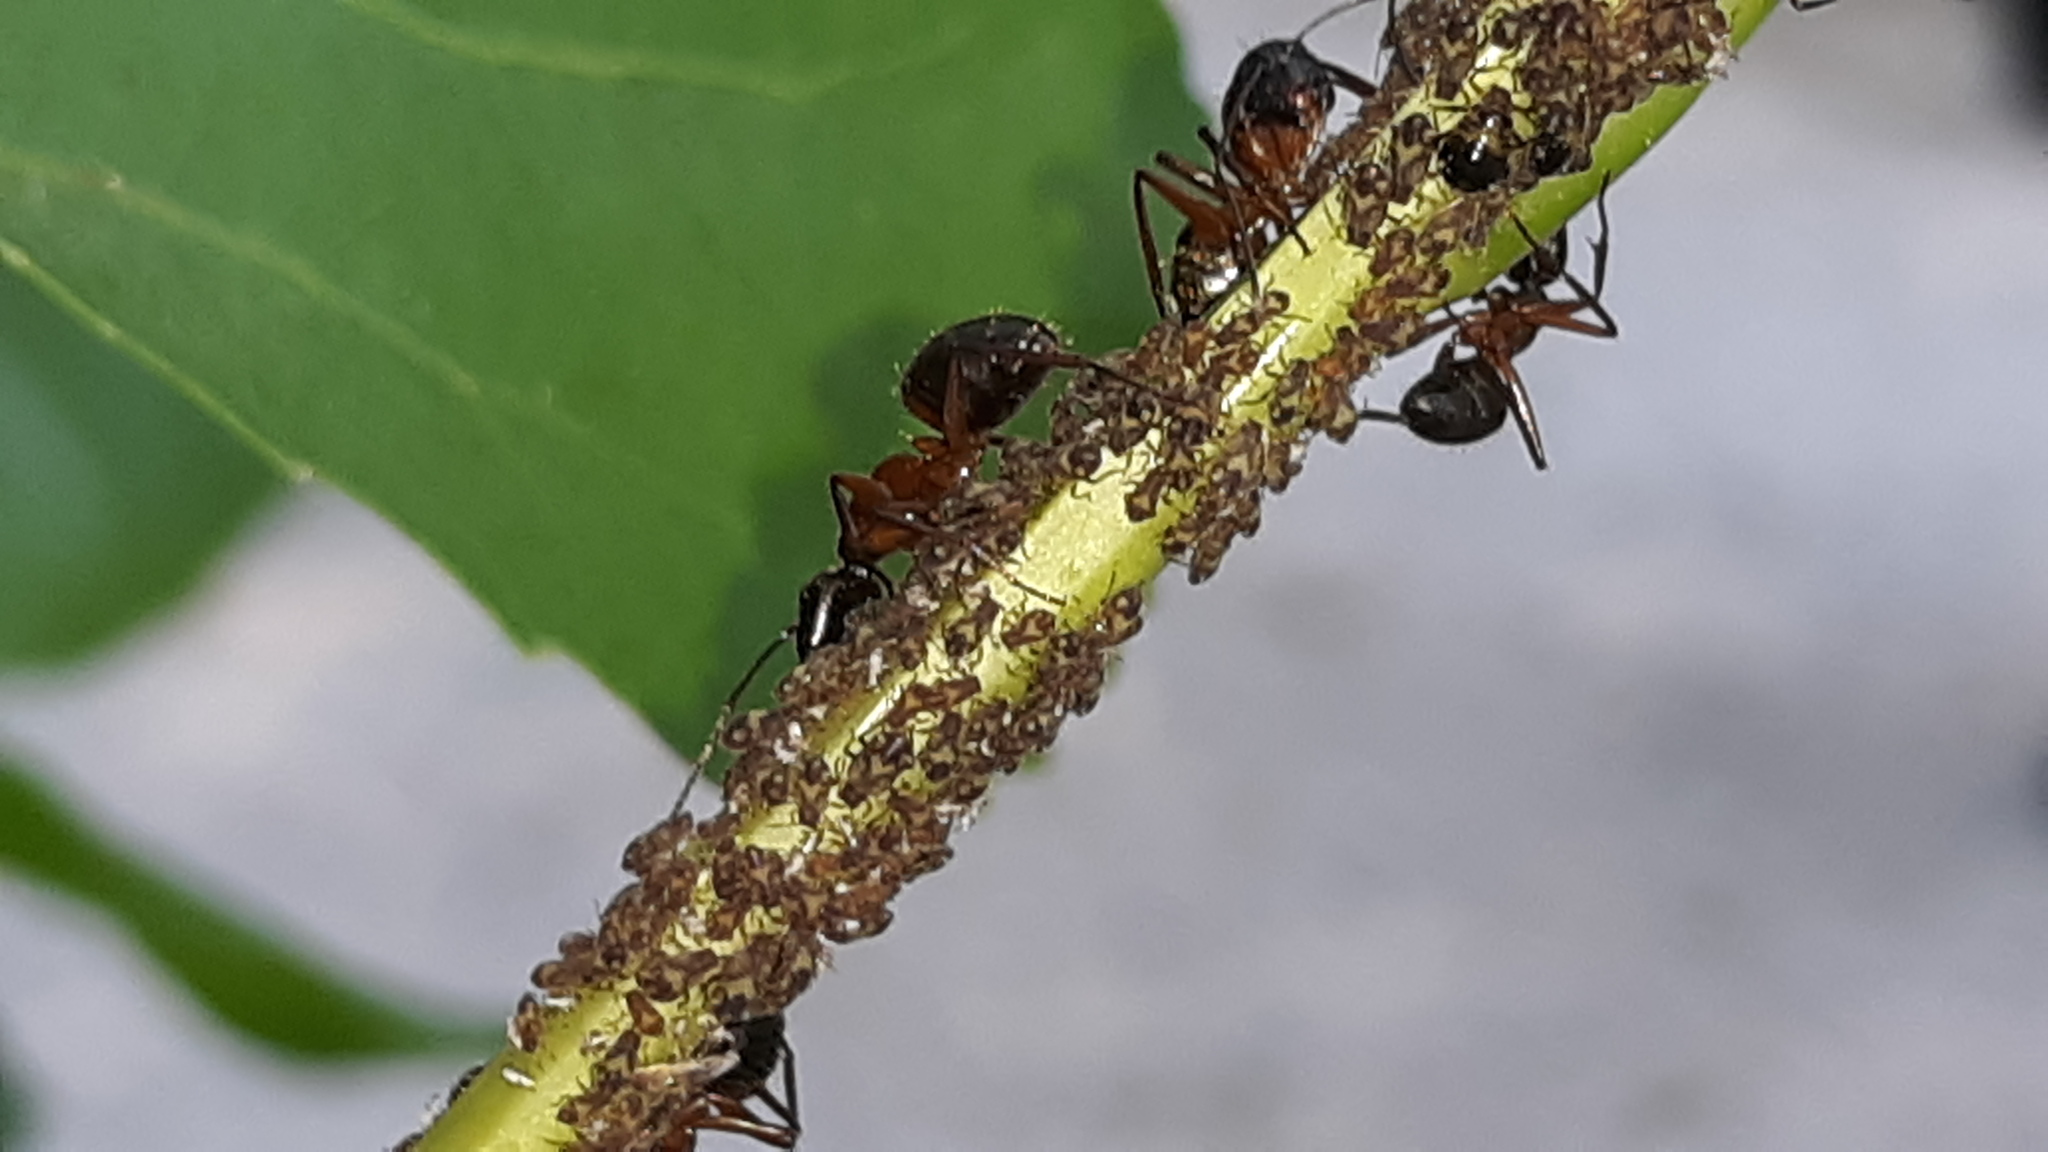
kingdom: Animalia
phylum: Arthropoda
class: Insecta
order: Hymenoptera
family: Formicidae
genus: Camponotus
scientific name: Camponotus chromaiodes
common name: Red carpenter ant
